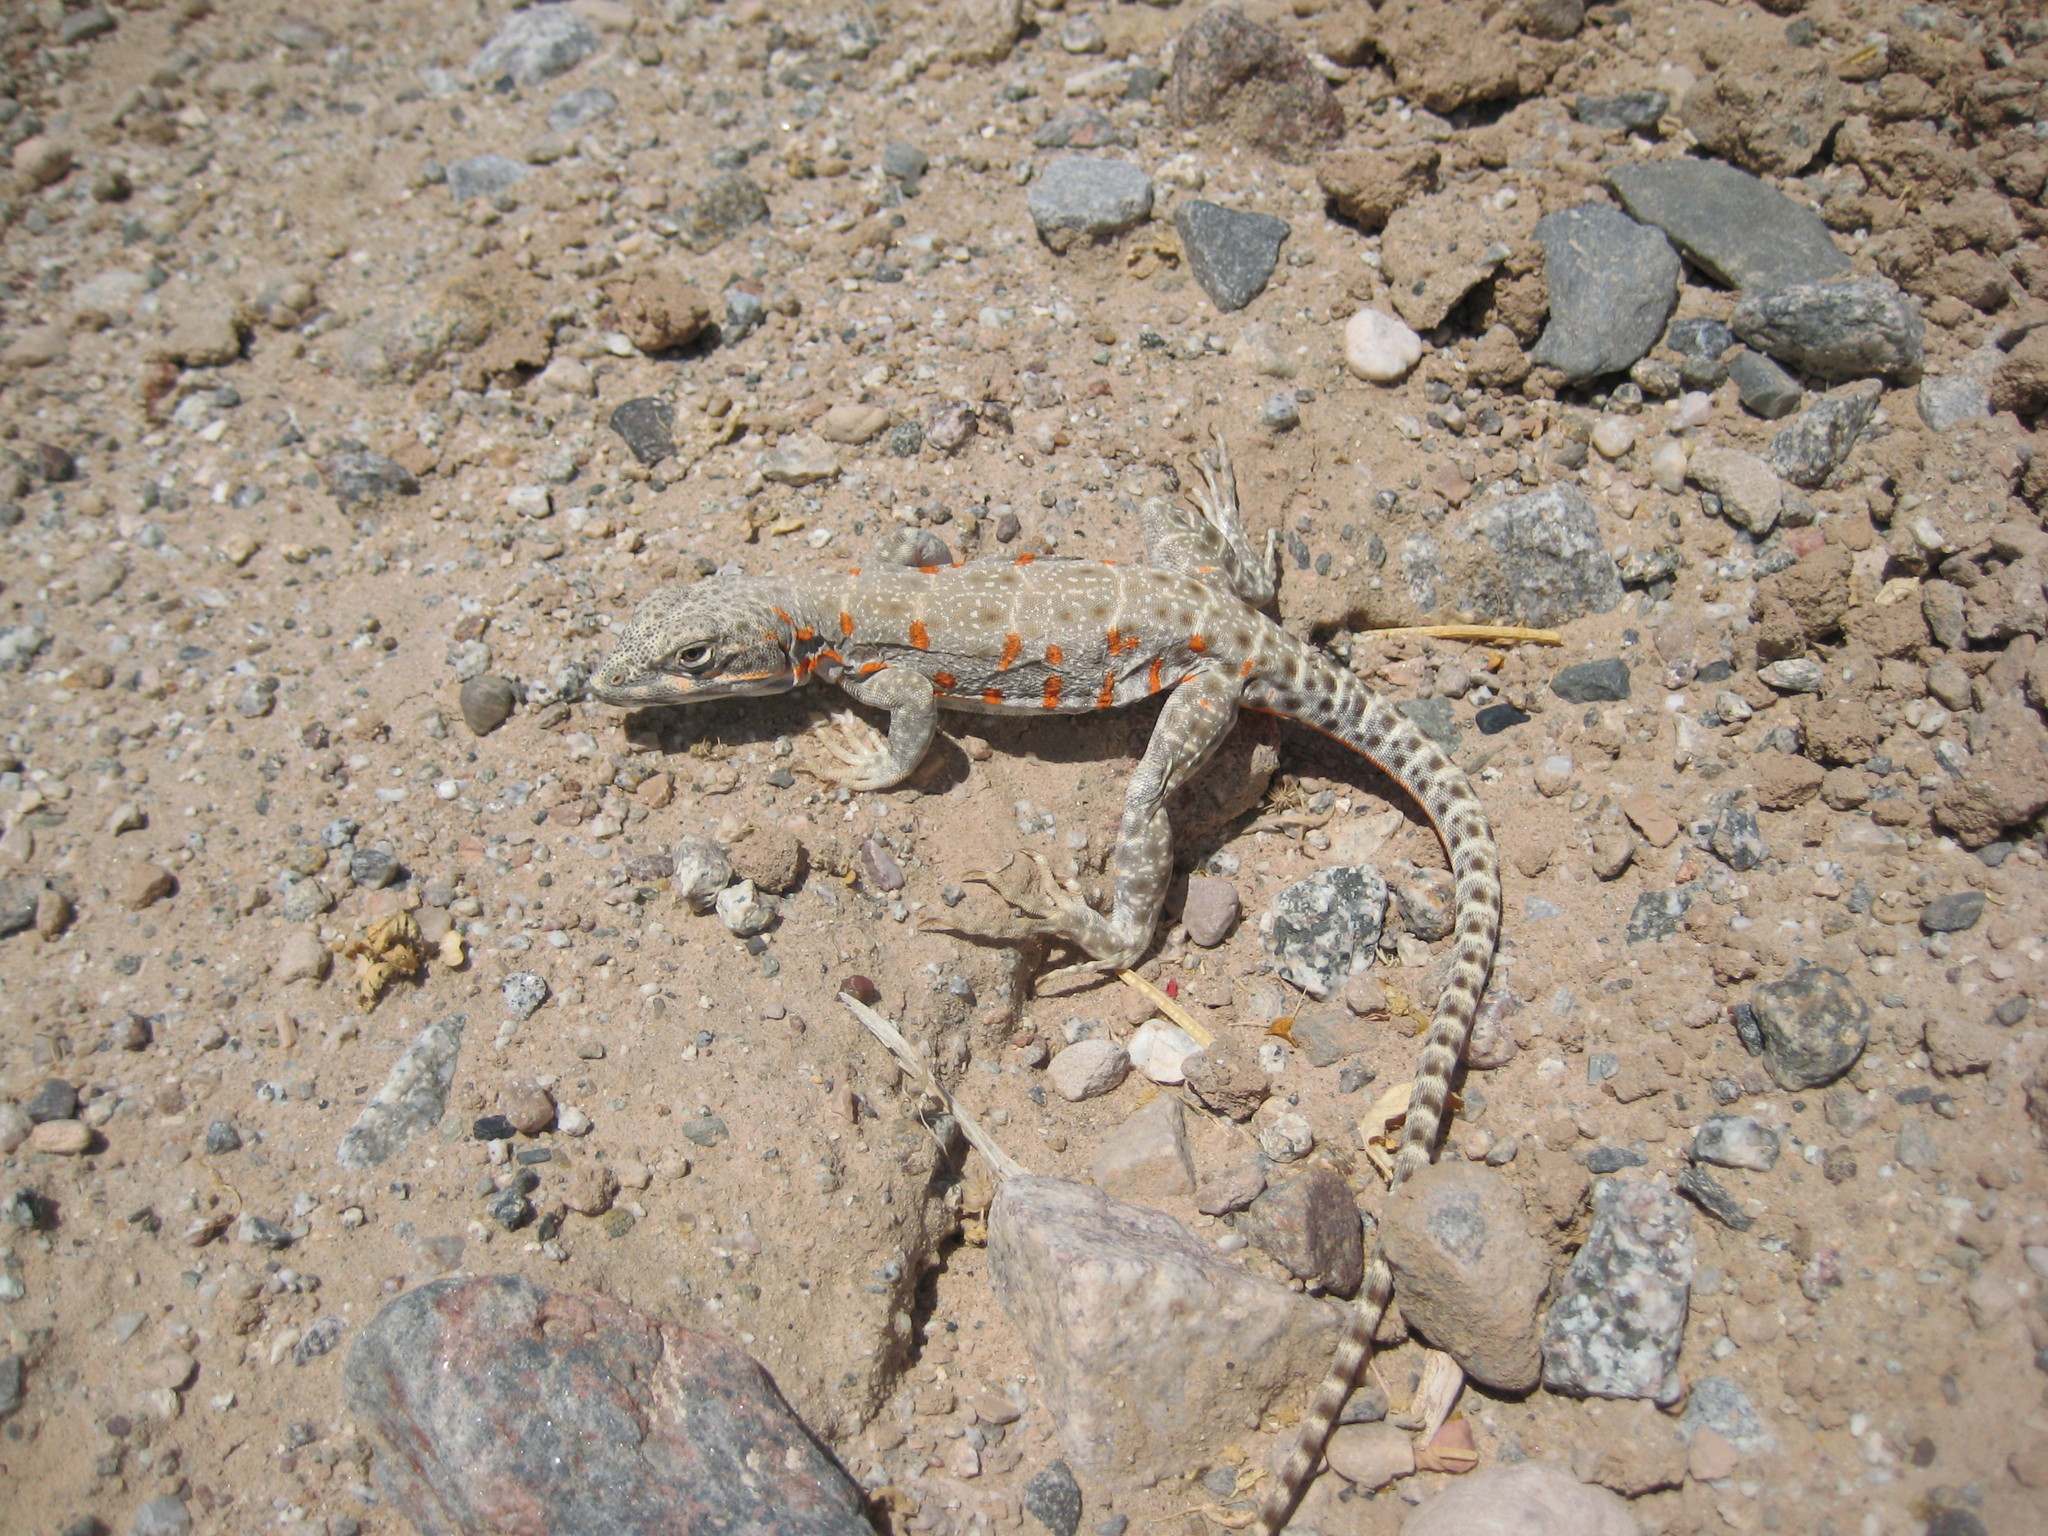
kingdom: Animalia
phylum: Chordata
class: Squamata
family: Crotaphytidae
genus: Gambelia
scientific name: Gambelia wislizenii
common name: Longnose leopard lizard
